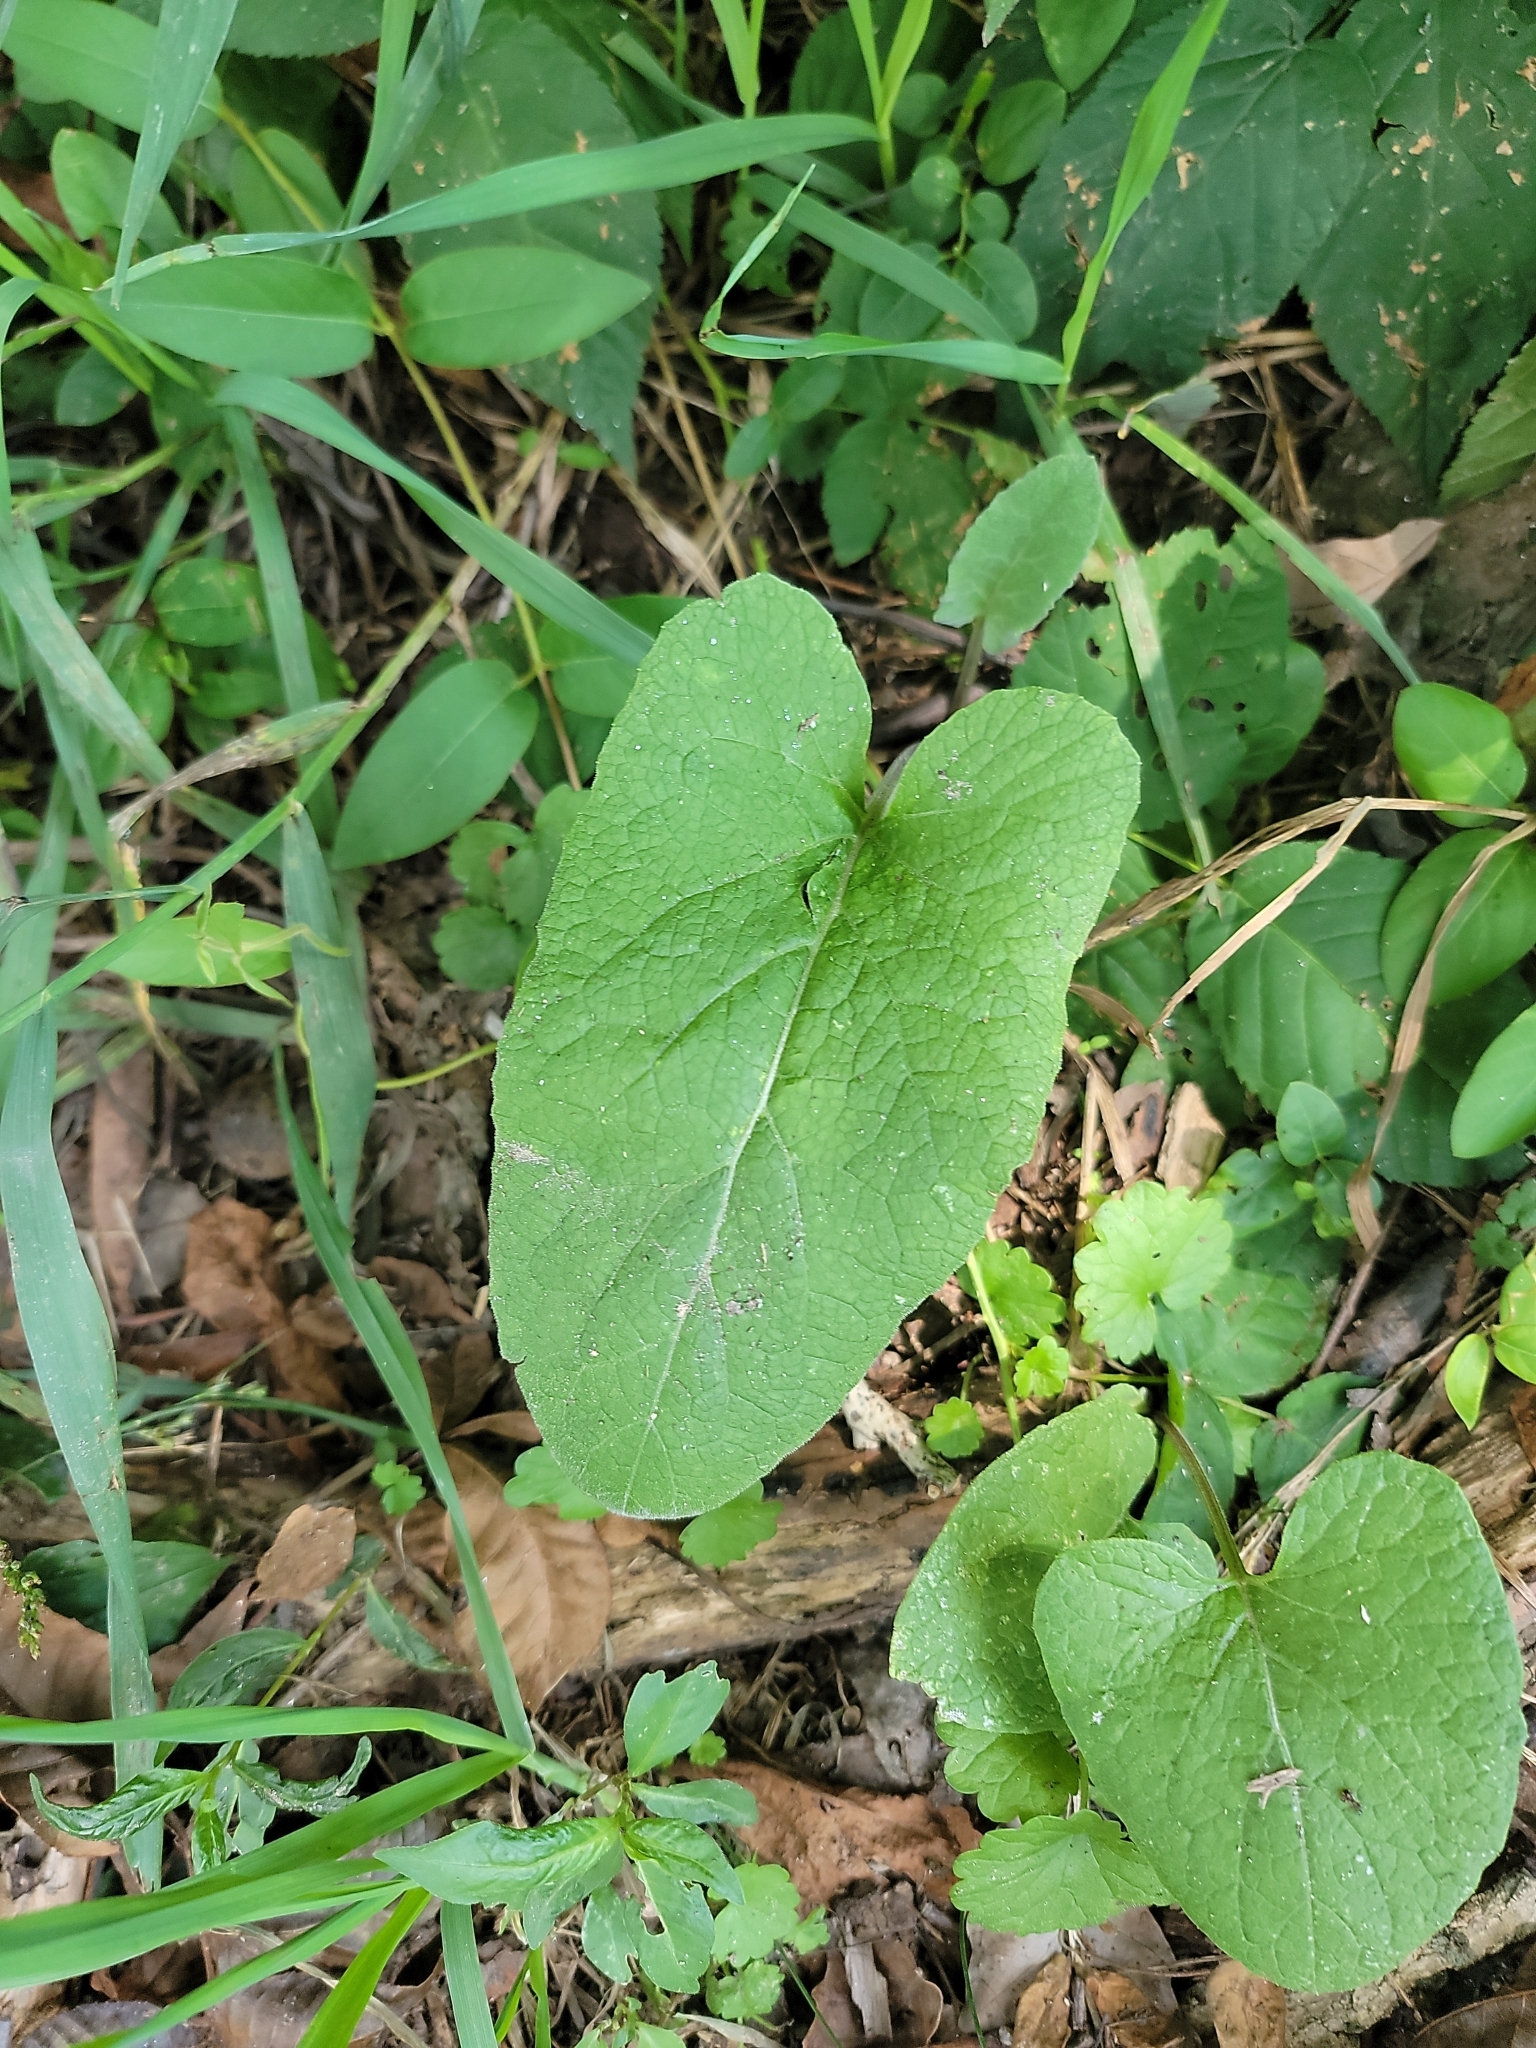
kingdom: Plantae
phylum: Tracheophyta
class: Magnoliopsida
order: Asterales
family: Asteraceae
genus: Arctium
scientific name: Arctium
